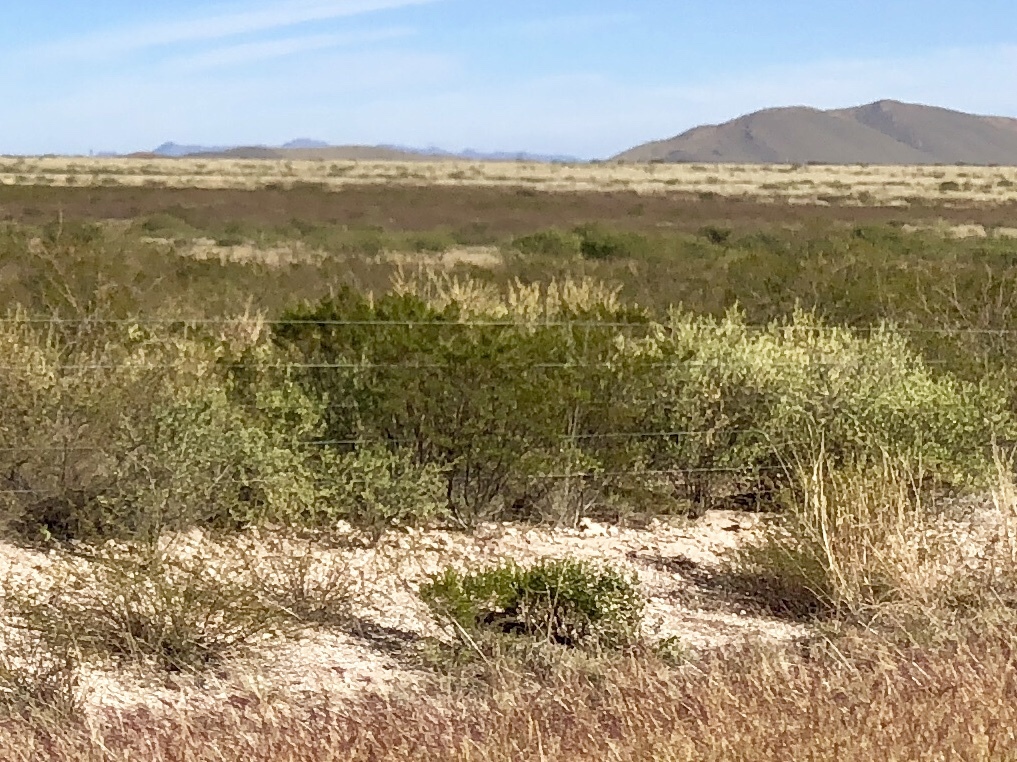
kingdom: Plantae
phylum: Tracheophyta
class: Magnoliopsida
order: Zygophyllales
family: Zygophyllaceae
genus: Larrea
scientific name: Larrea tridentata
